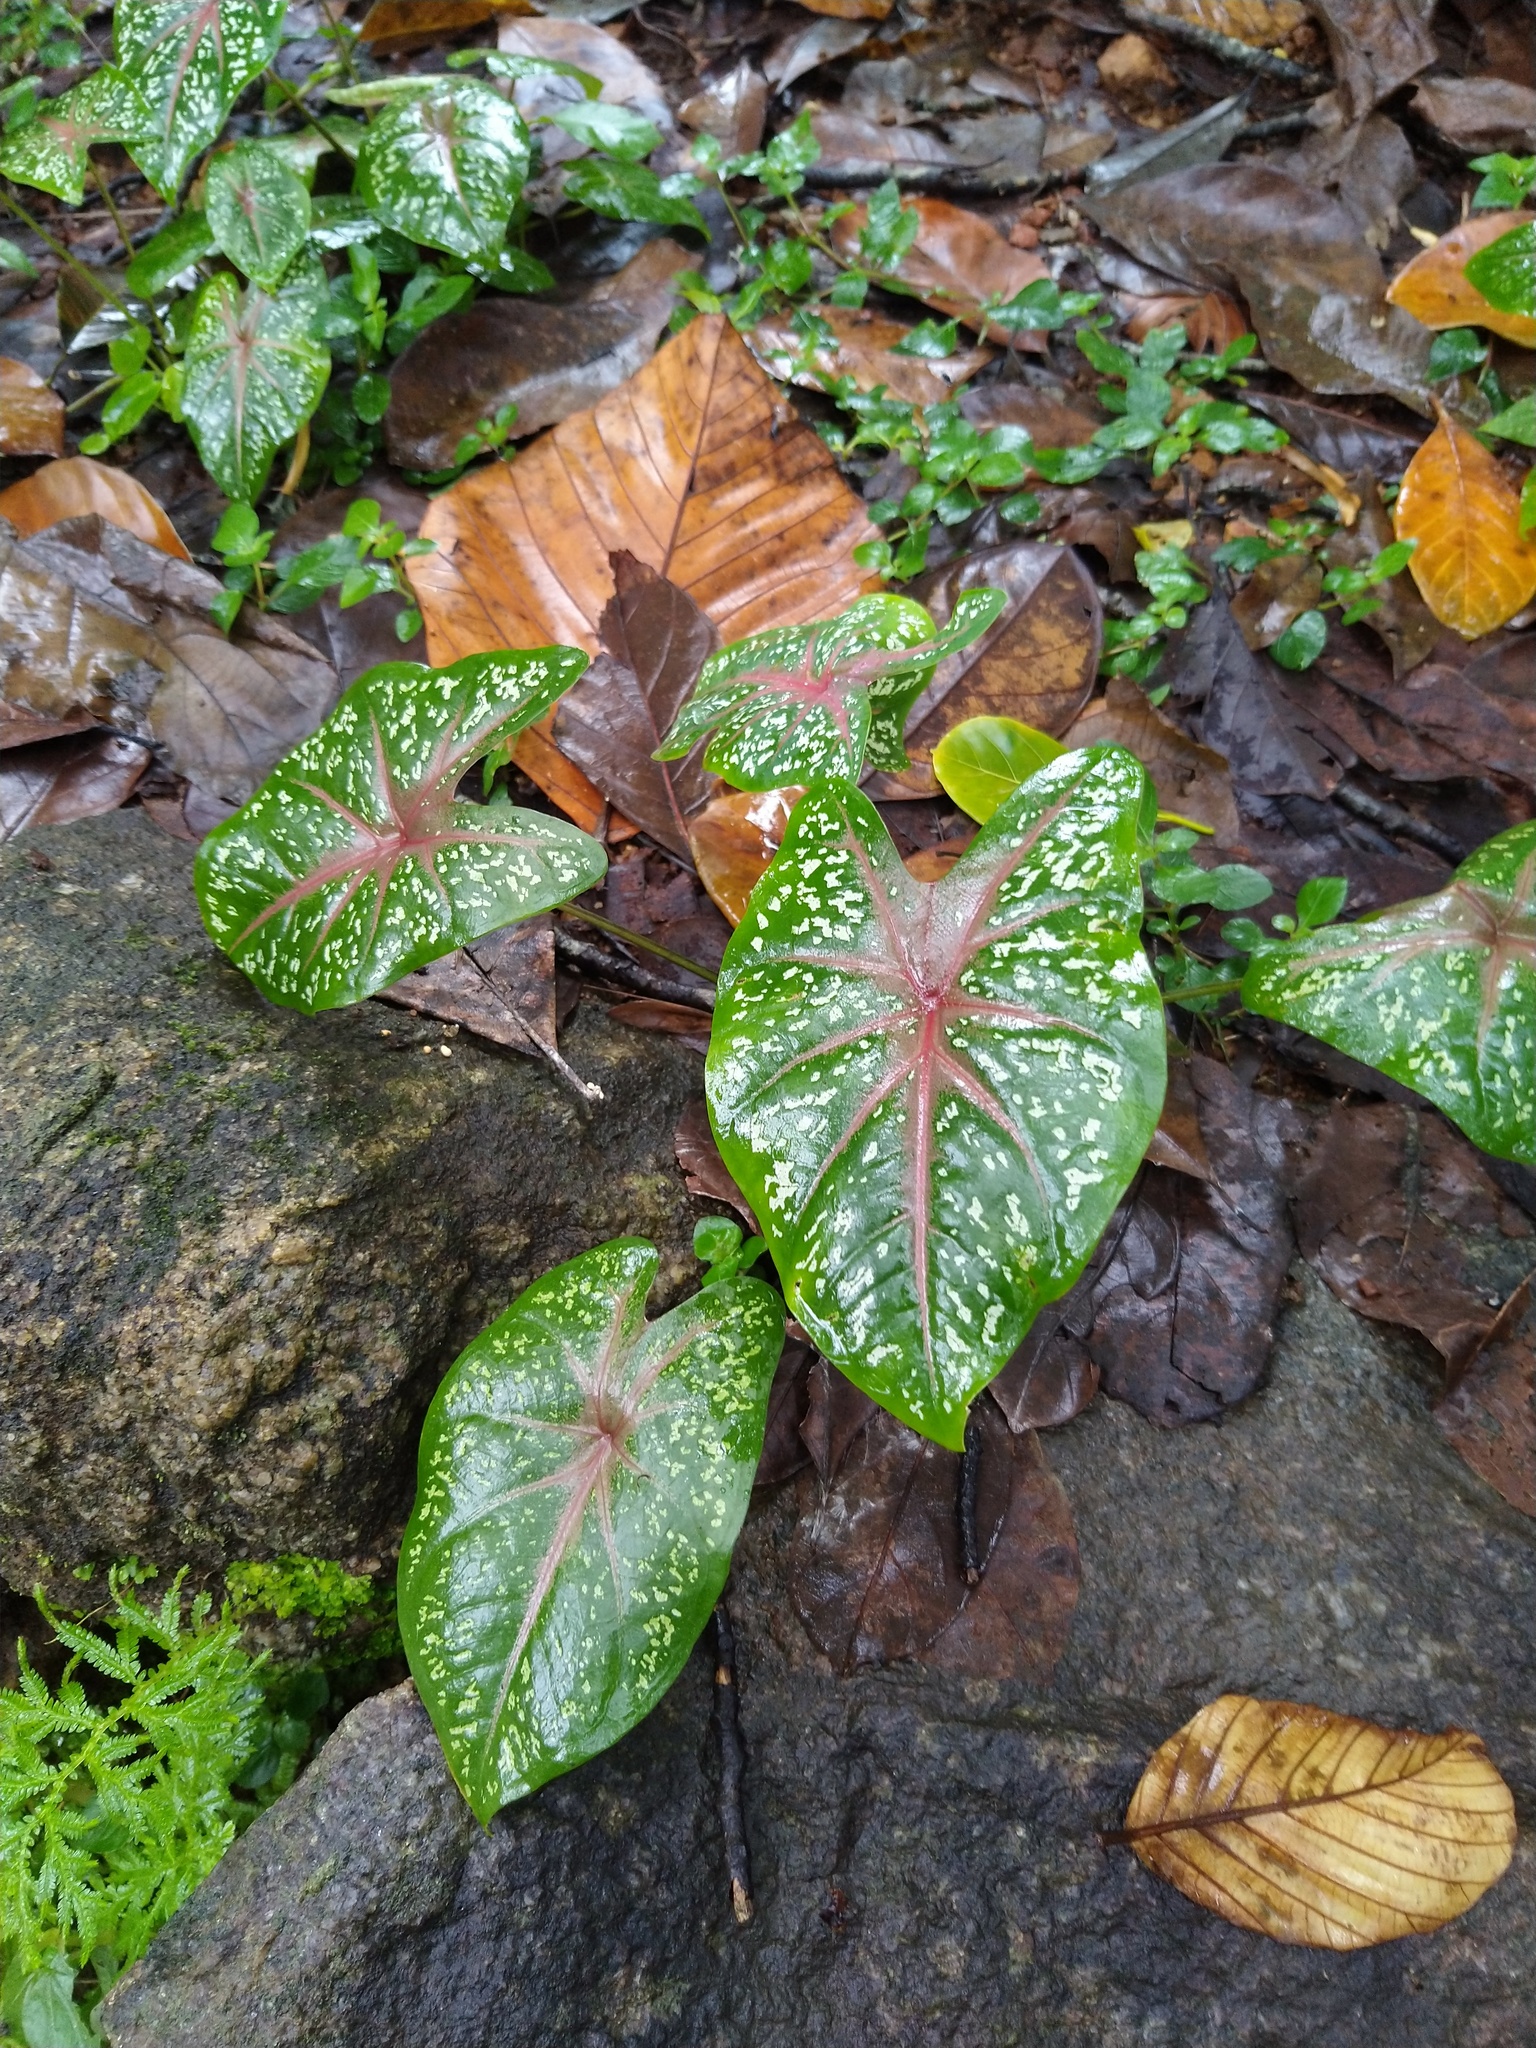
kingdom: Plantae
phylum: Tracheophyta
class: Liliopsida
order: Alismatales
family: Araceae
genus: Caladium
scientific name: Caladium bicolor
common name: Artist's pallet
